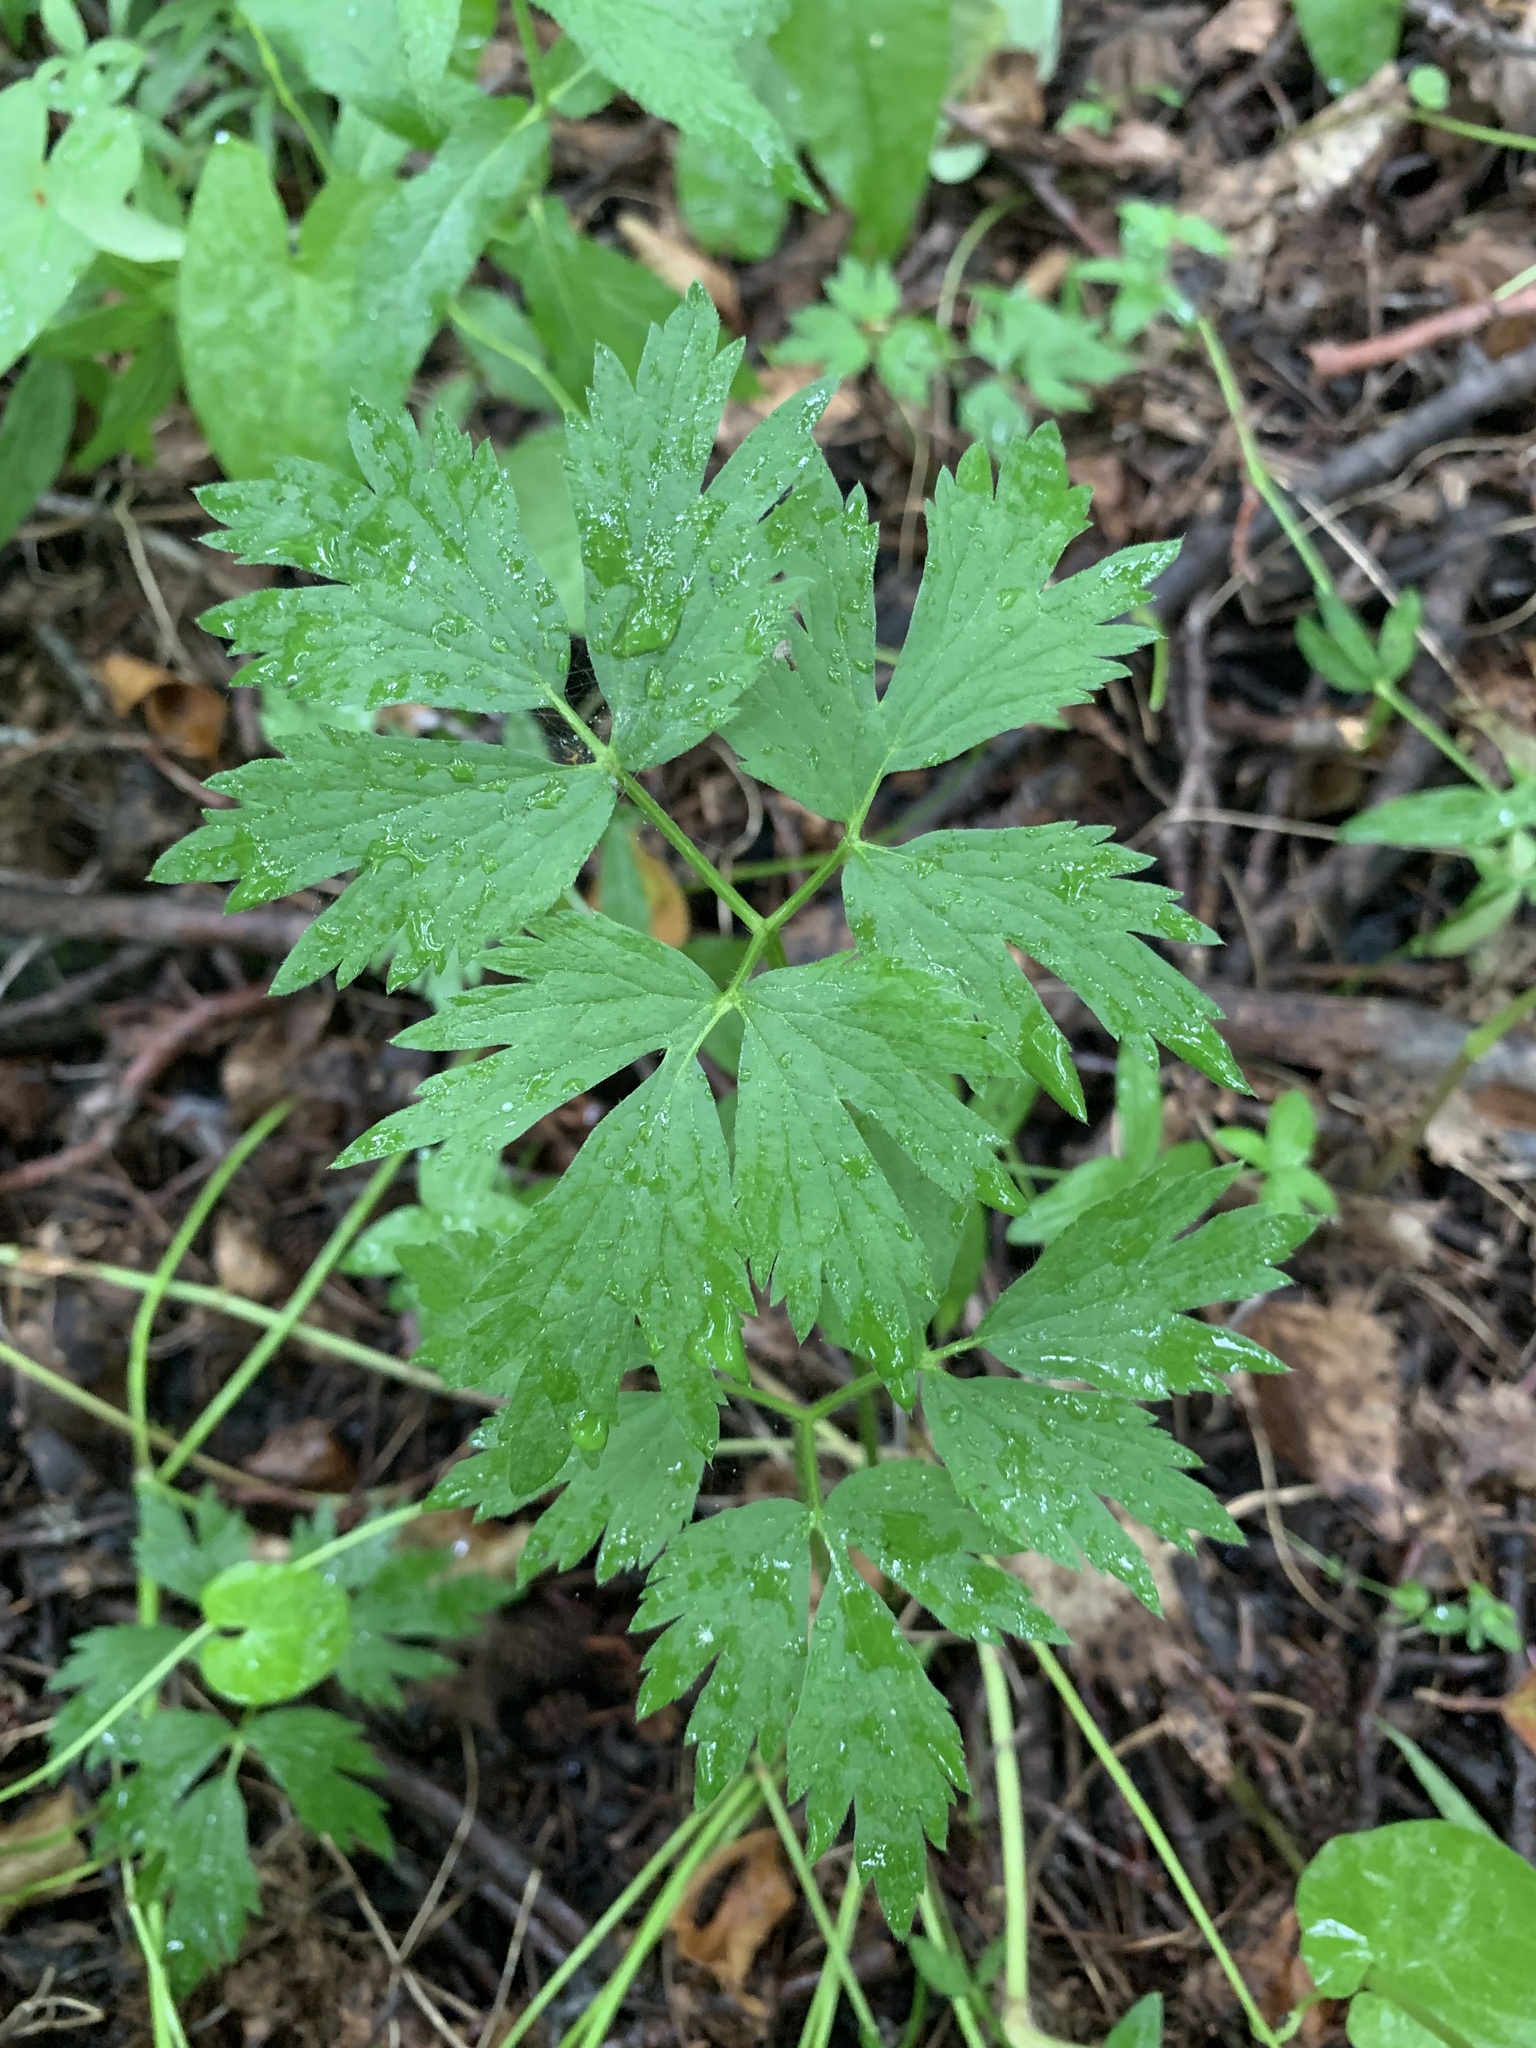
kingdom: Plantae
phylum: Tracheophyta
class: Magnoliopsida
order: Ranunculales
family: Ranunculaceae
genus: Ranunculus
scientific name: Ranunculus repens
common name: Creeping buttercup
